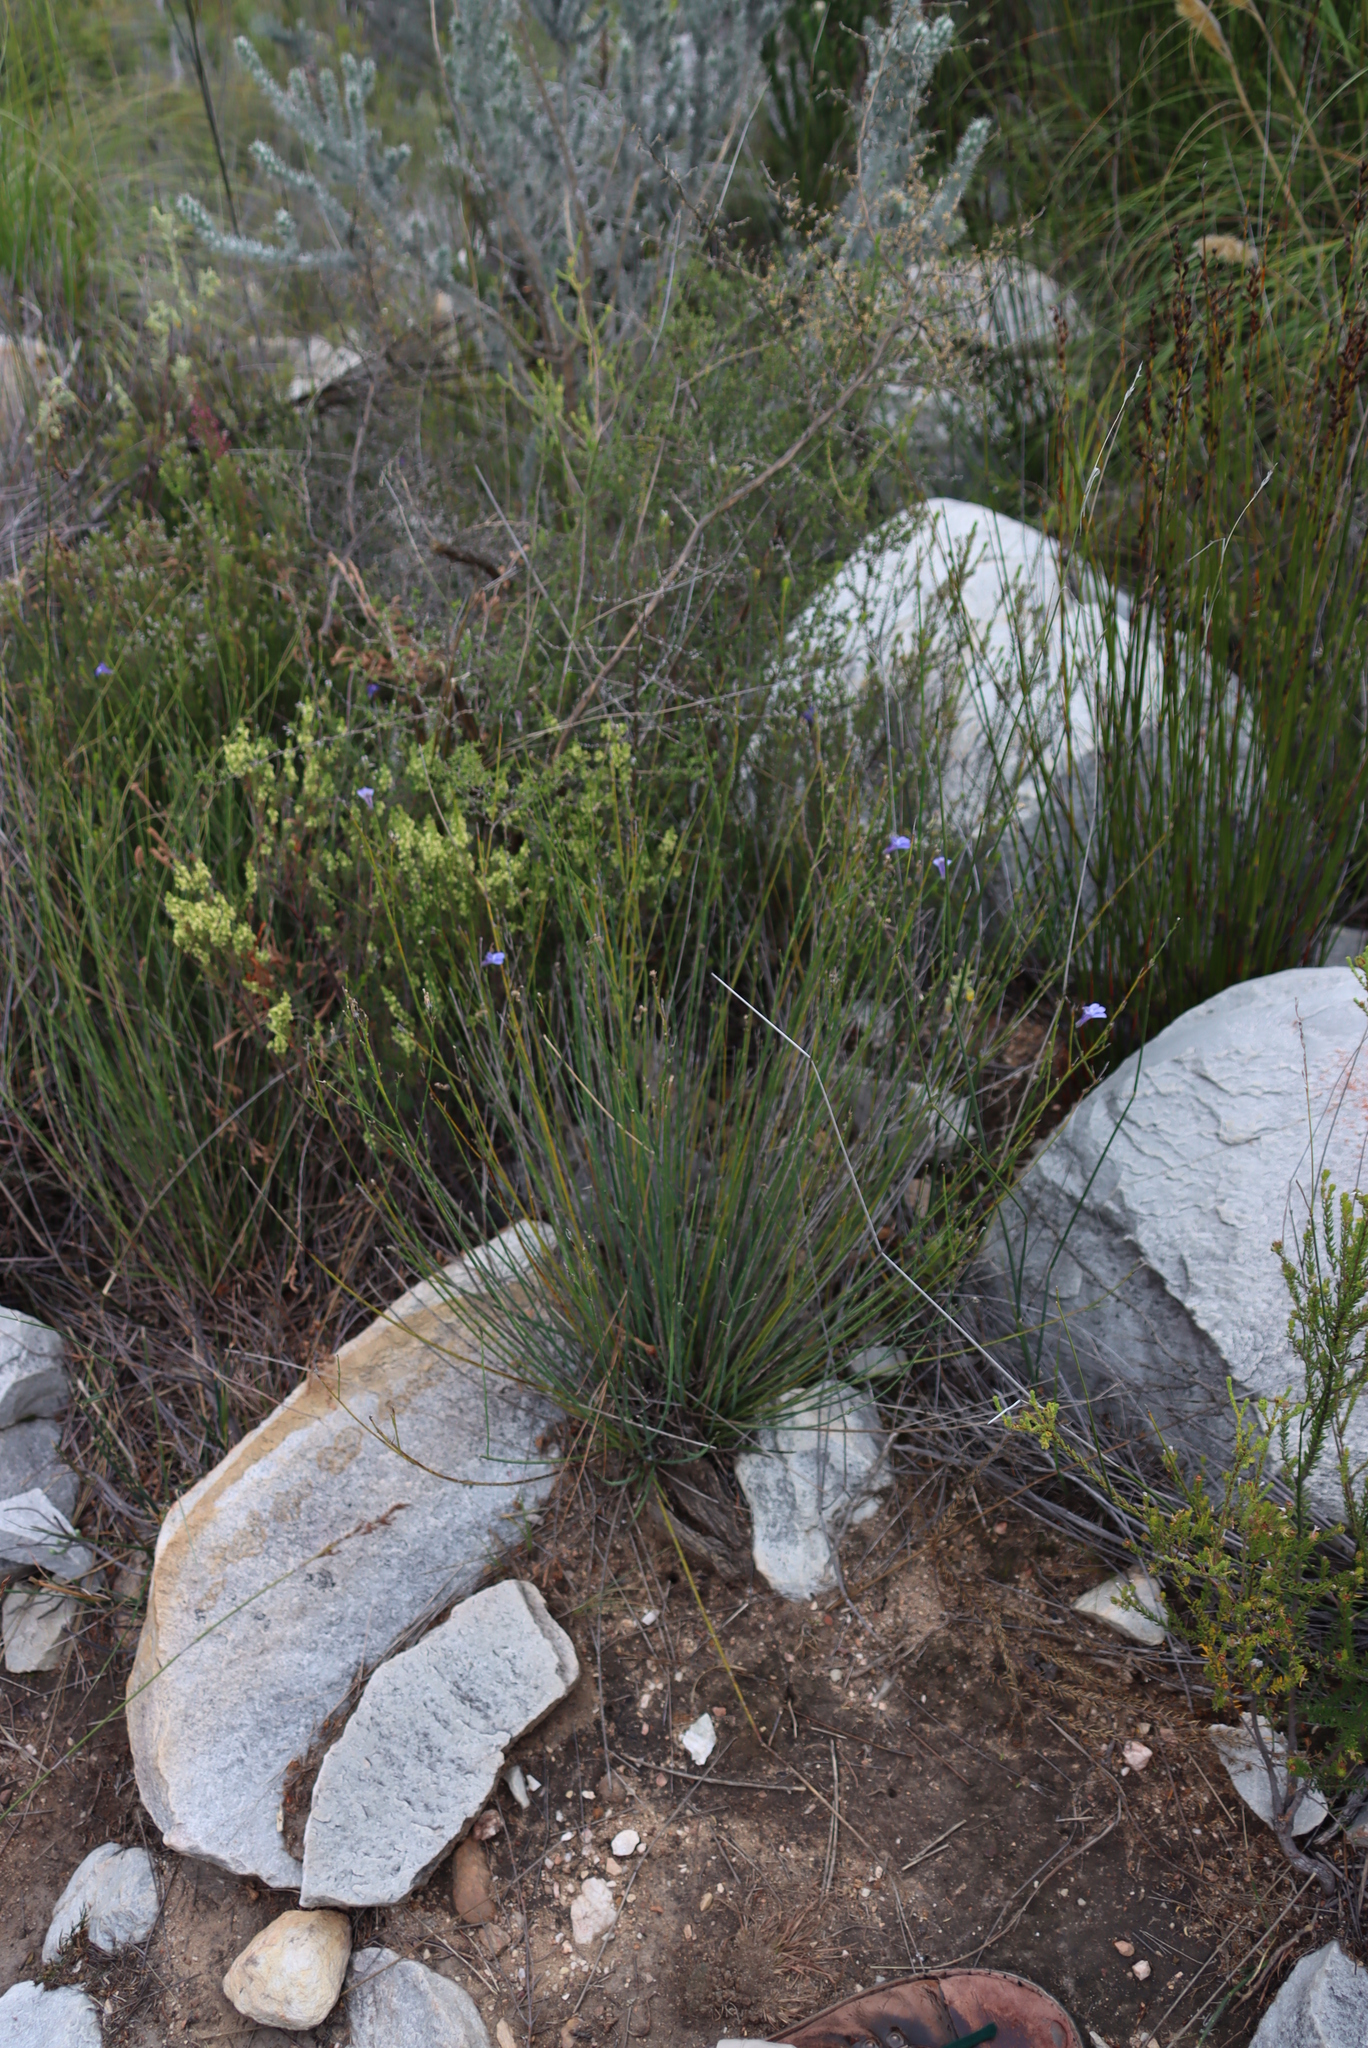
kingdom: Plantae
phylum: Tracheophyta
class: Magnoliopsida
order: Asterales
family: Campanulaceae
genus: Lobelia
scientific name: Lobelia linearis
